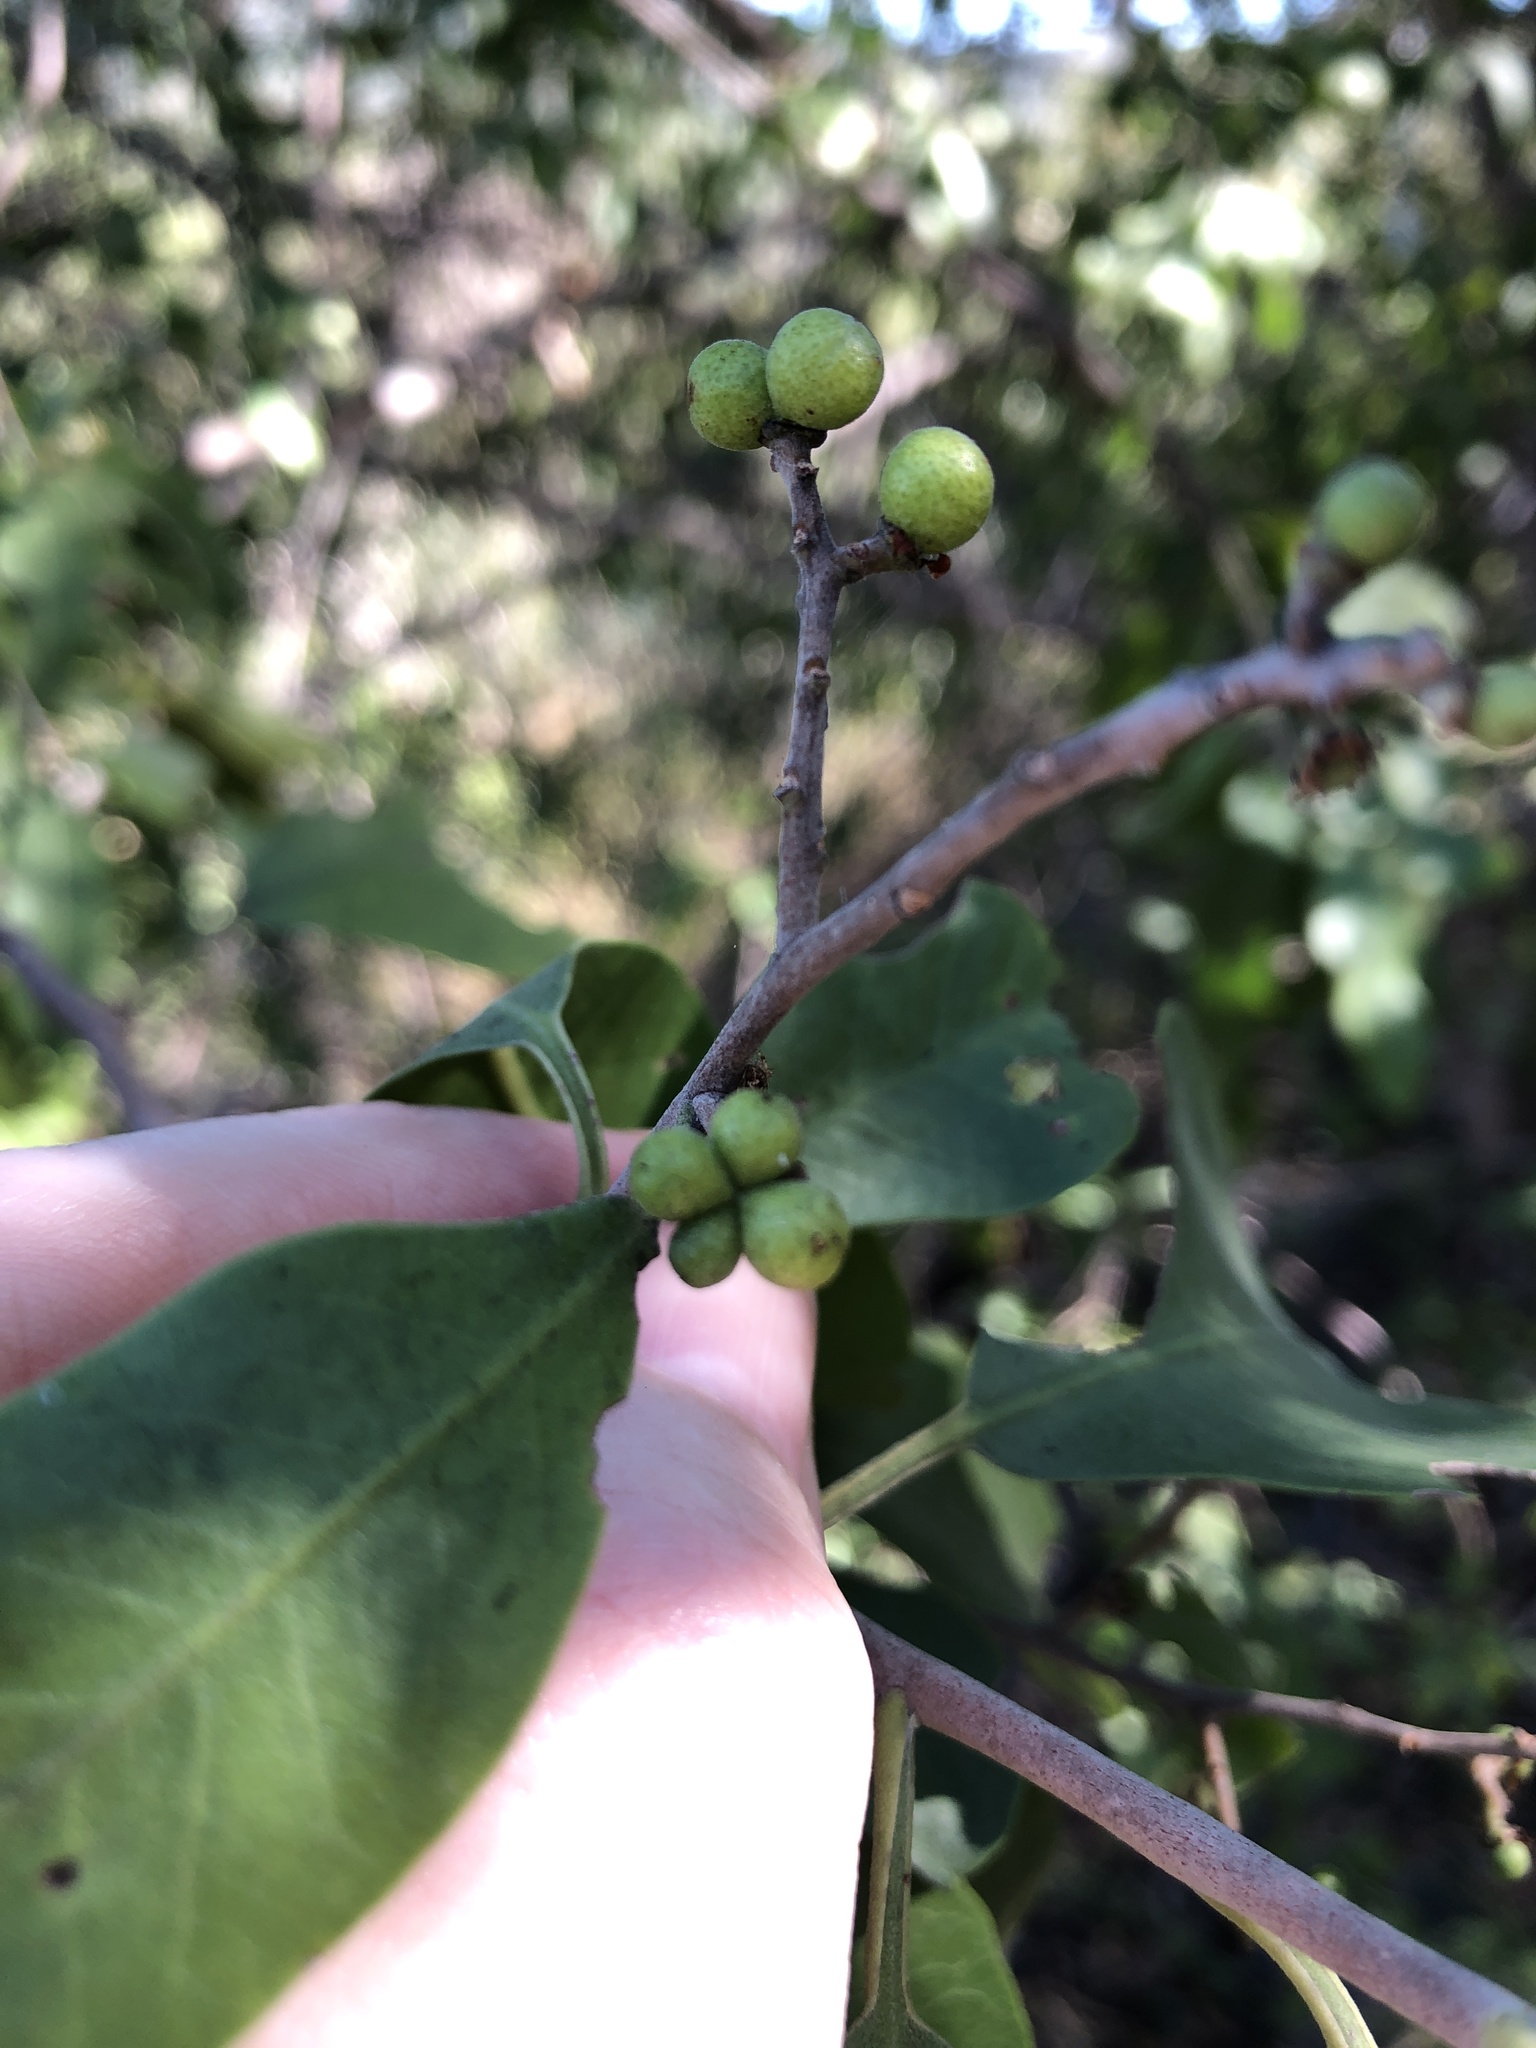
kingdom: Plantae
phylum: Tracheophyta
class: Magnoliopsida
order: Sapindales
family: Rutaceae
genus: Geijera
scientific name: Geijera salicifolia
